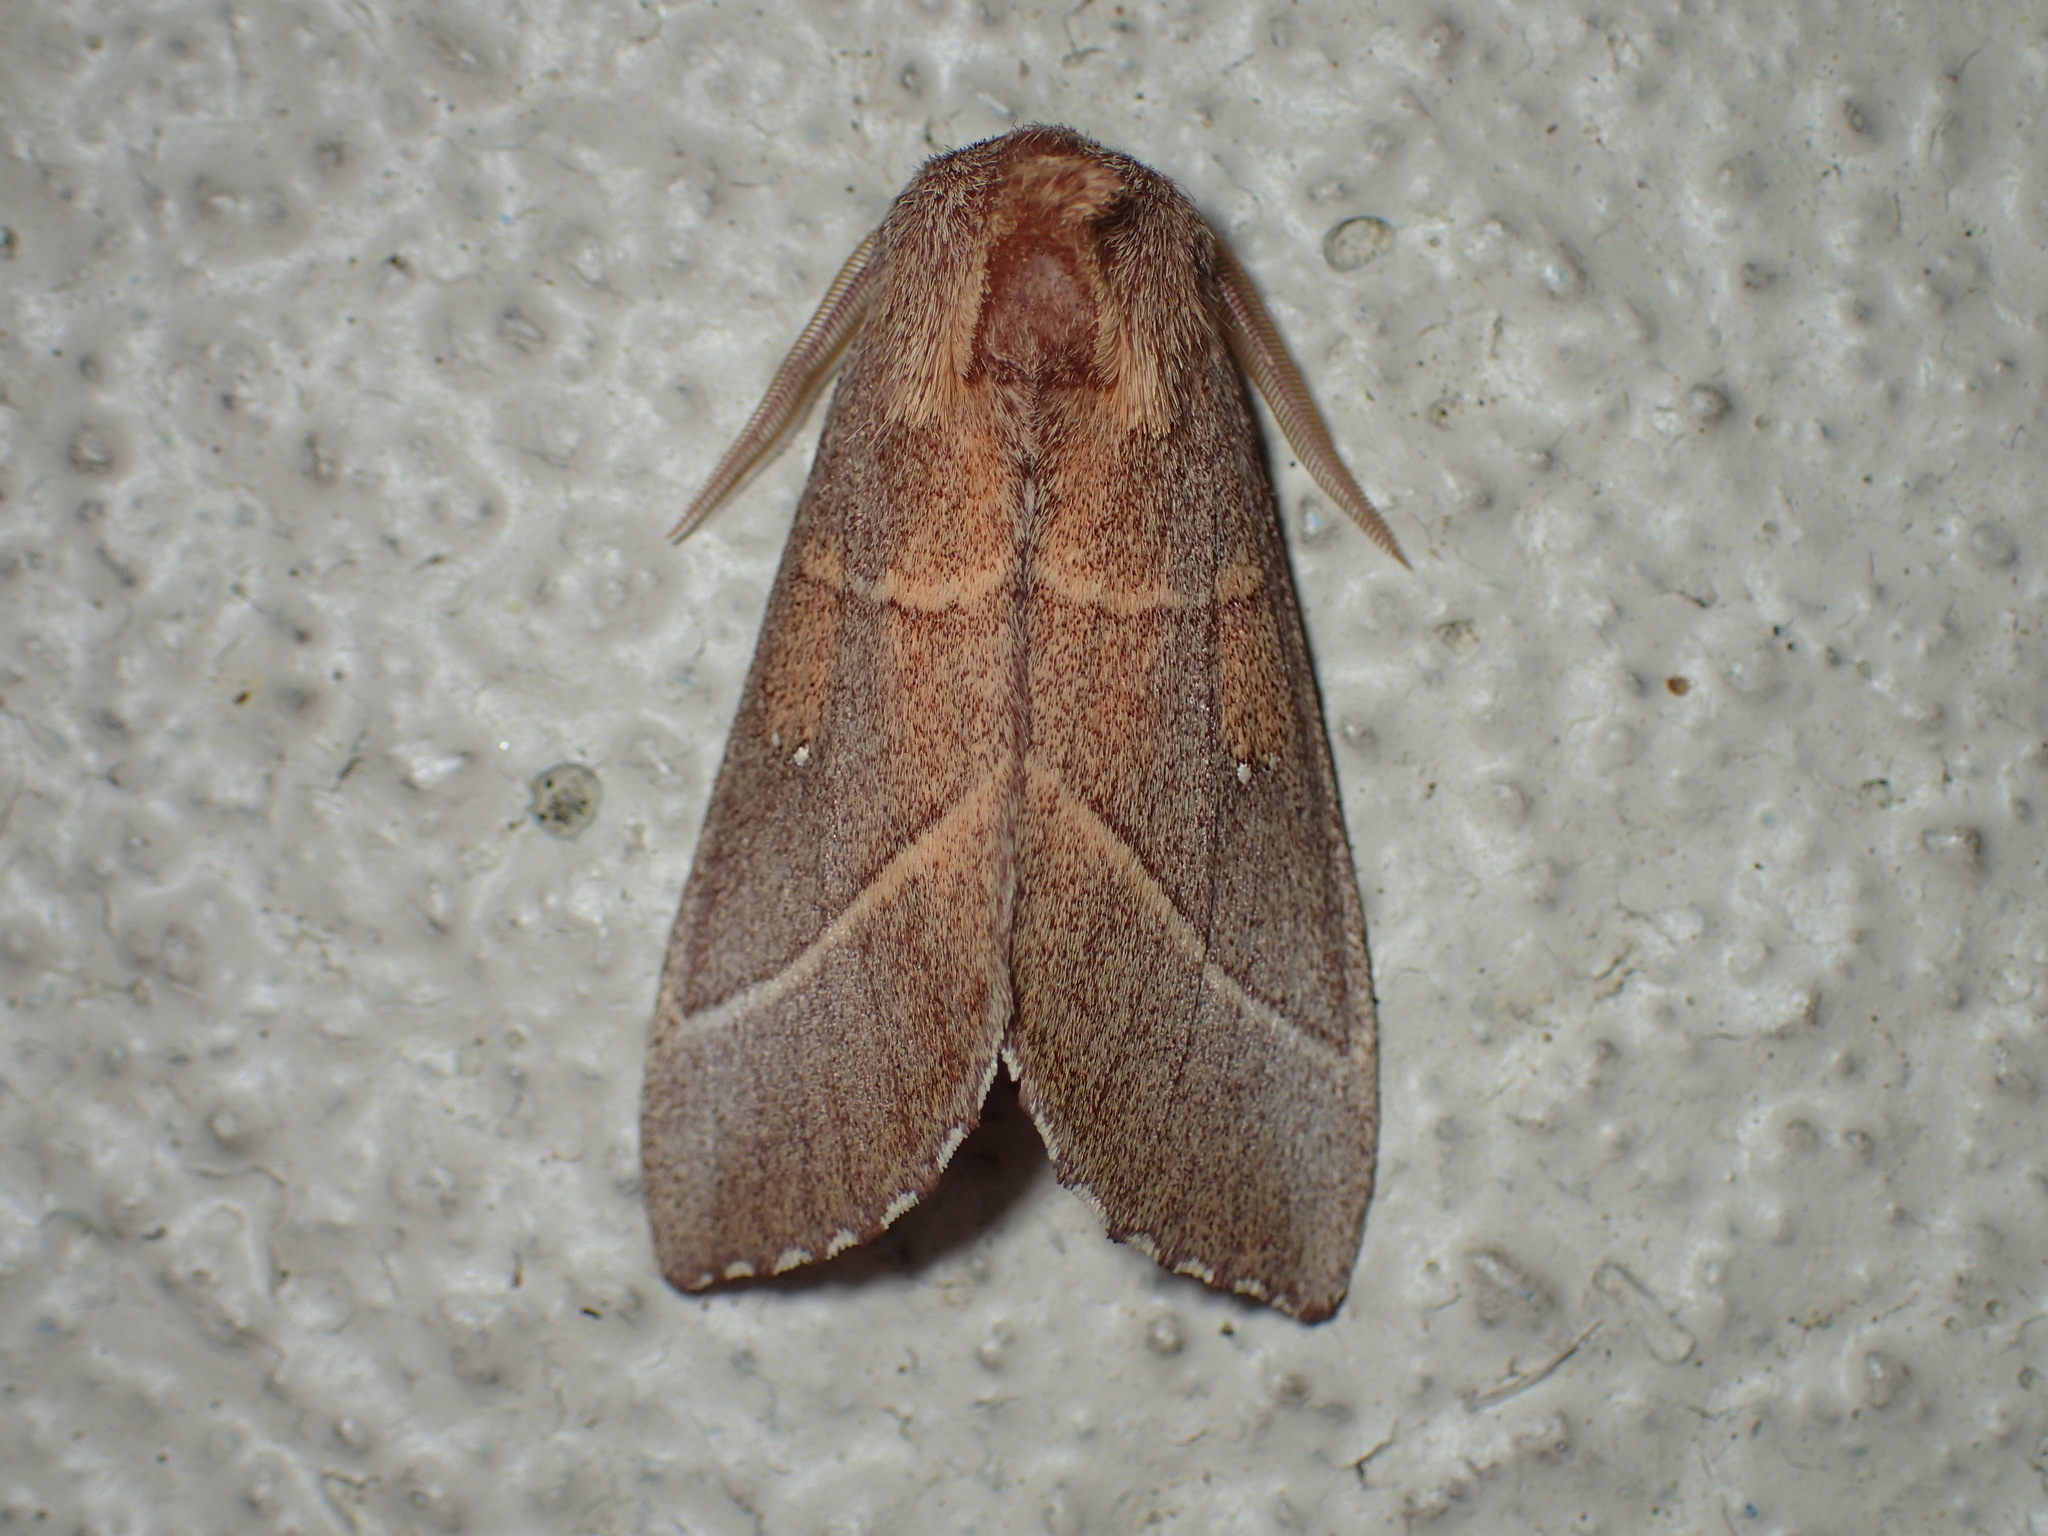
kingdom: Animalia
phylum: Arthropoda
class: Insecta
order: Lepidoptera
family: Notodontidae
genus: Nadata
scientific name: Nadata gibbosa
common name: White-dotted prominent
